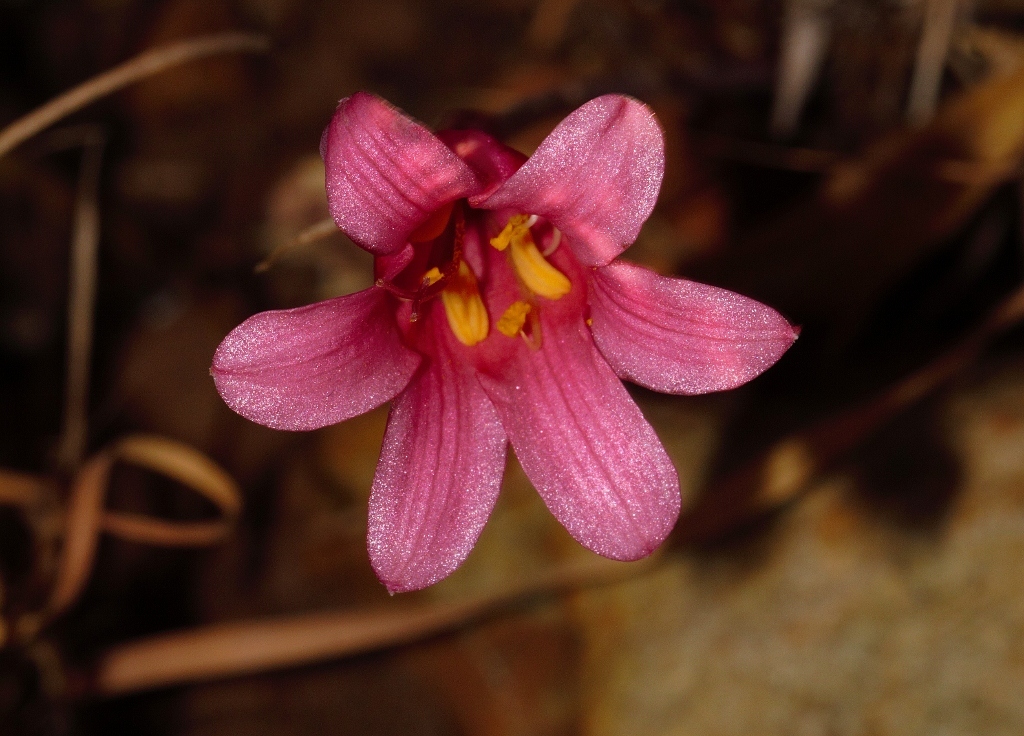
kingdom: Plantae
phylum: Tracheophyta
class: Liliopsida
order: Asparagales
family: Amaryllidaceae
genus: Cyrtanthus
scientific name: Cyrtanthus galpinii
